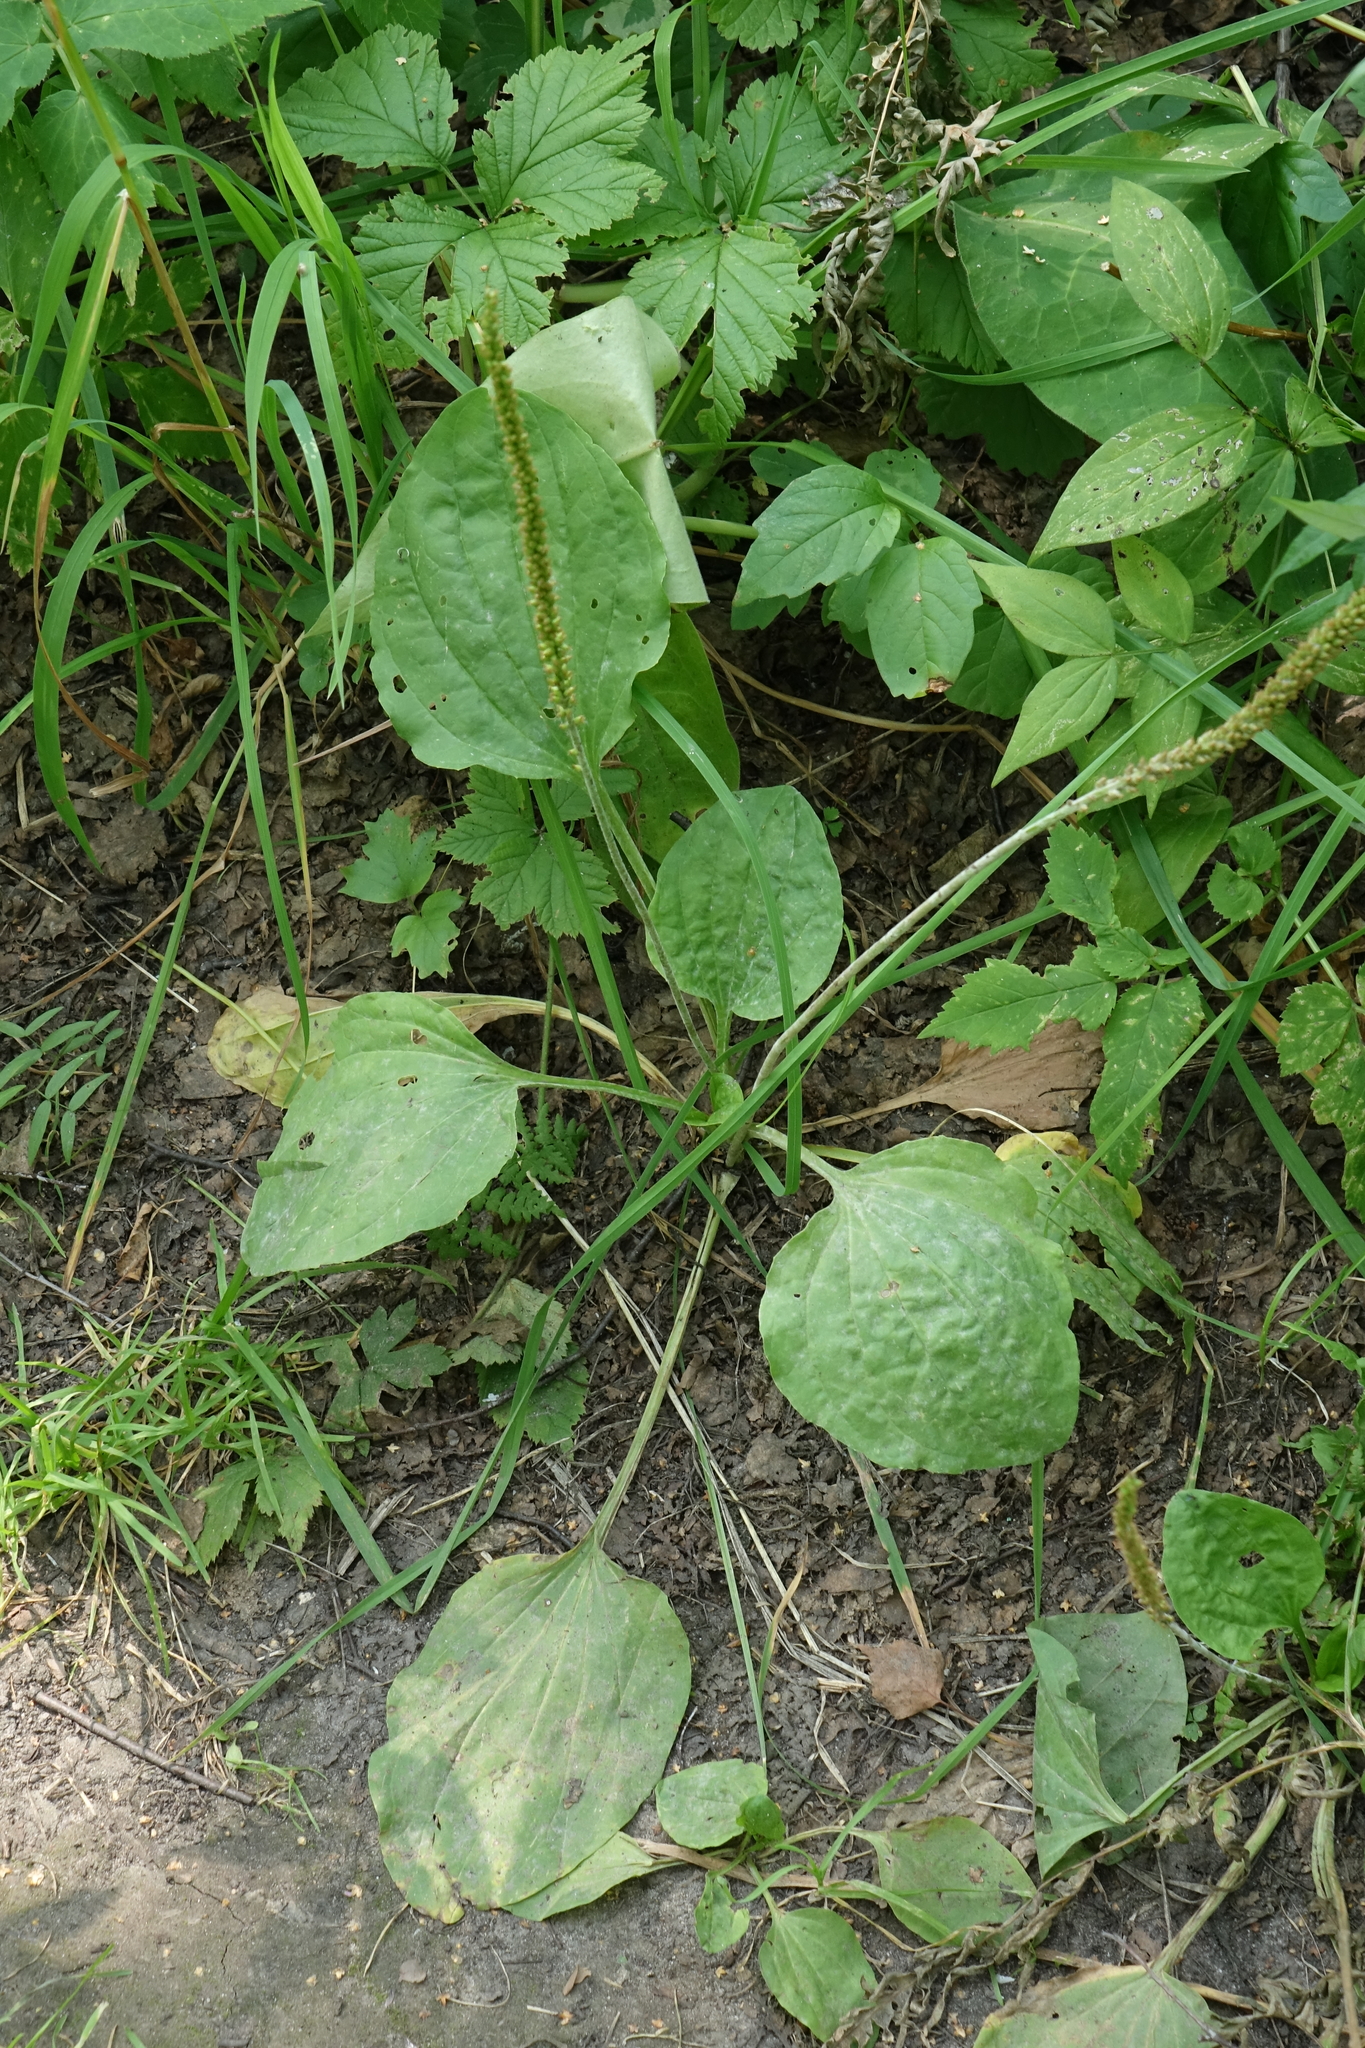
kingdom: Plantae
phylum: Tracheophyta
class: Magnoliopsida
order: Lamiales
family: Plantaginaceae
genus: Plantago
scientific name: Plantago major
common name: Common plantain
